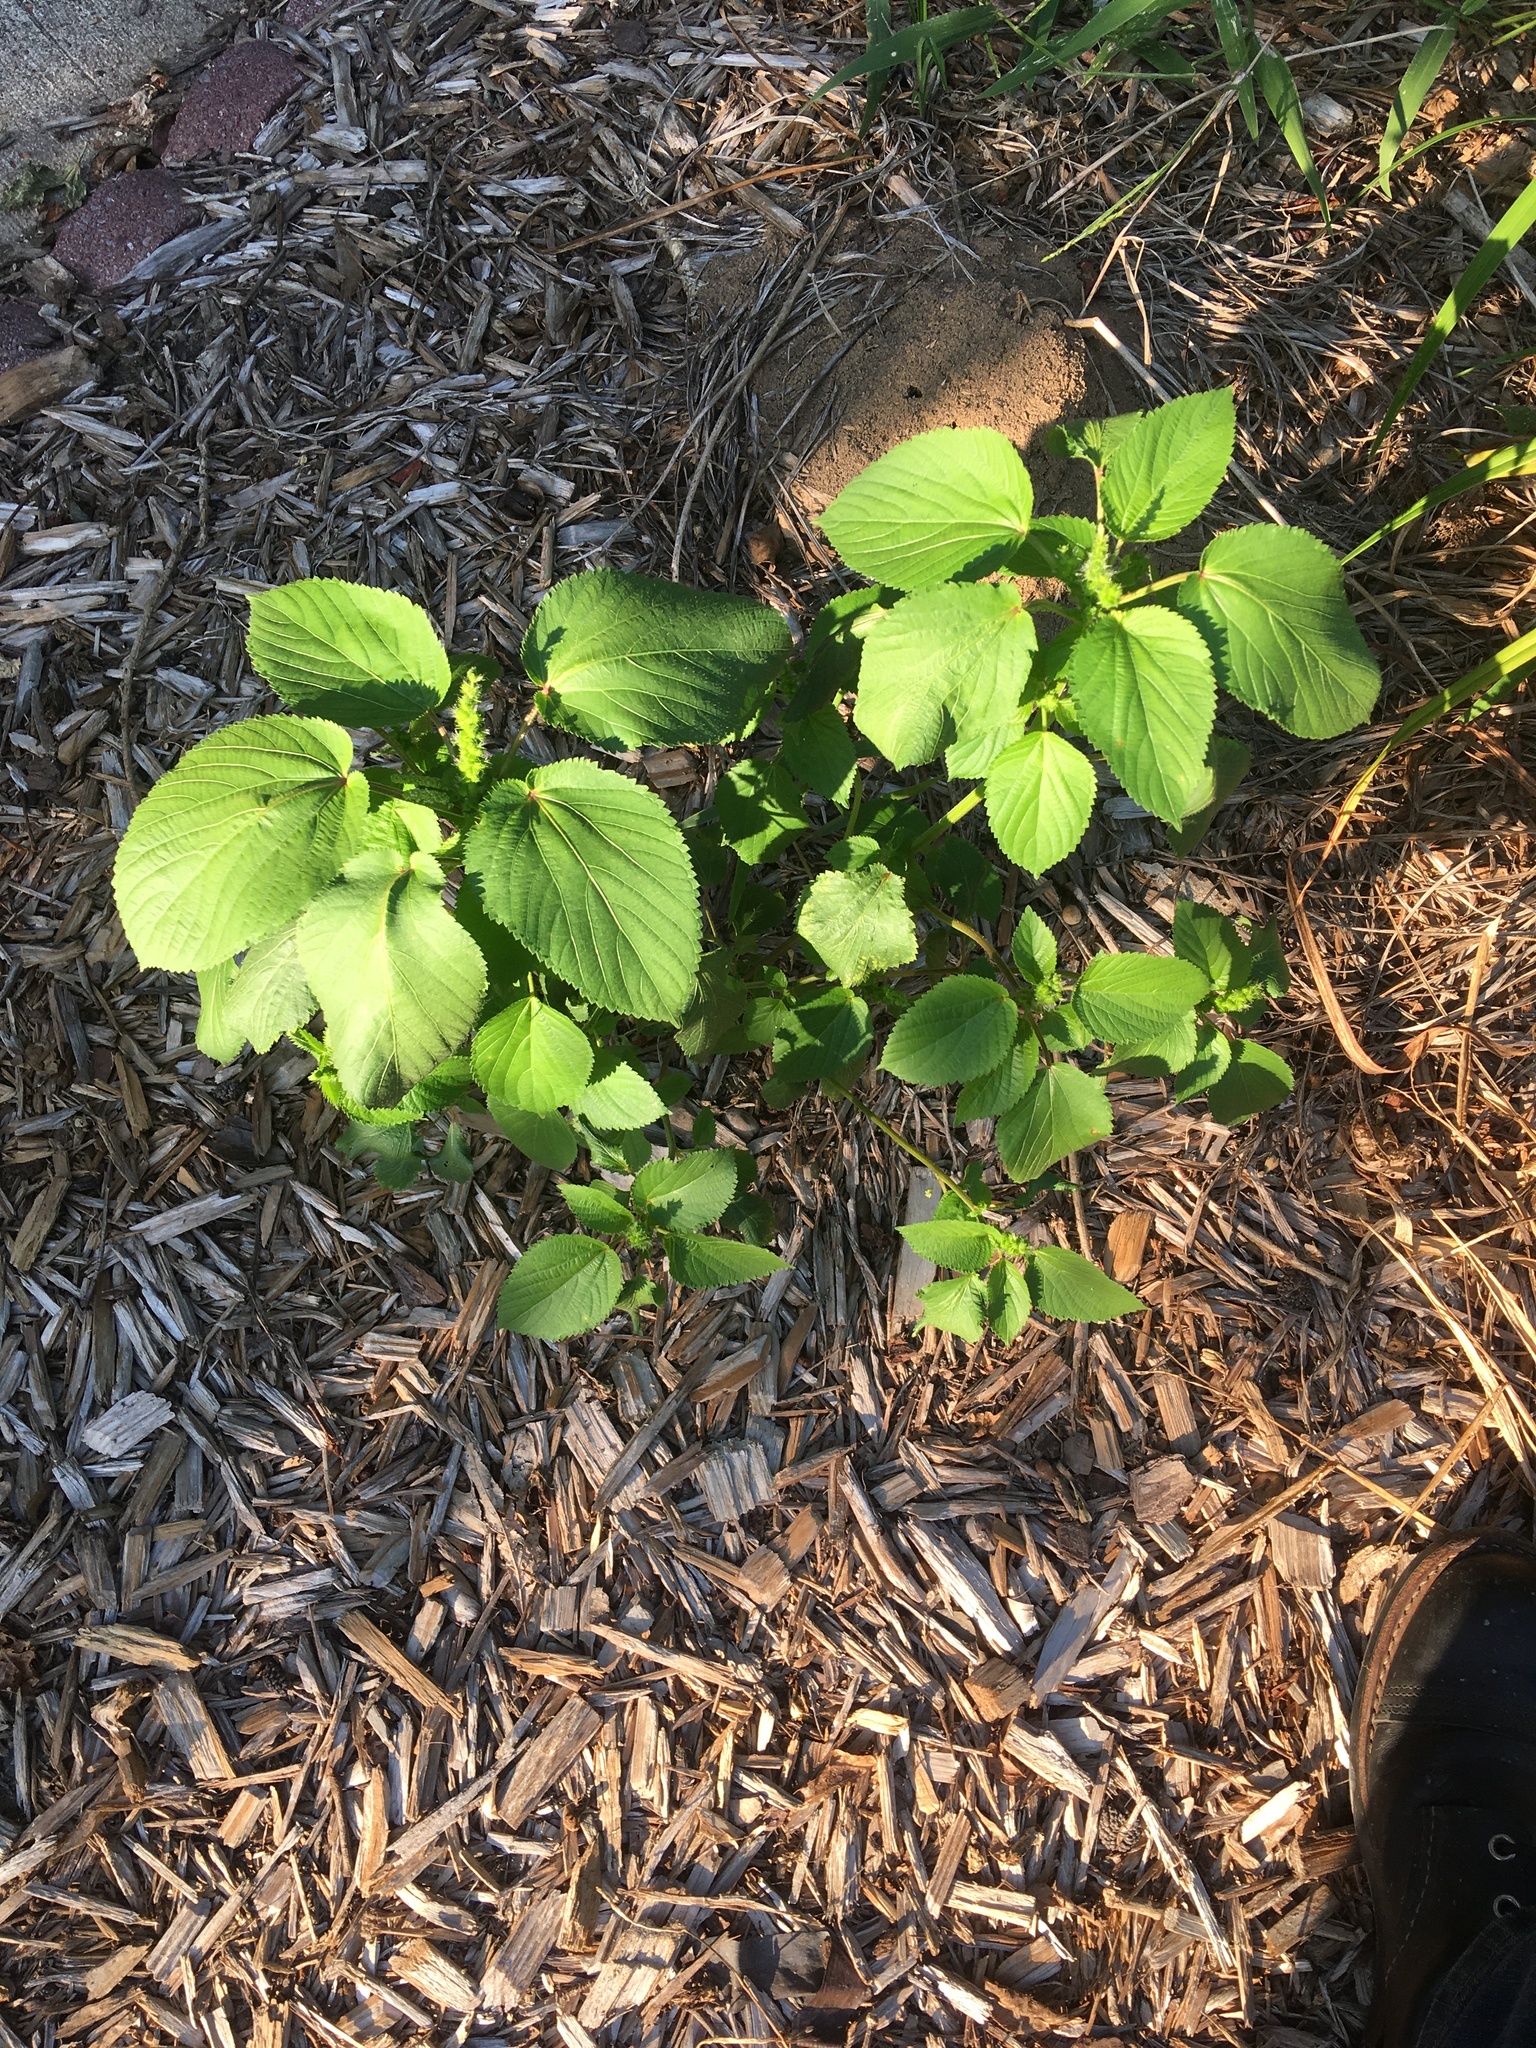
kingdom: Plantae
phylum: Tracheophyta
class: Magnoliopsida
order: Malpighiales
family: Euphorbiaceae
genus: Acalypha
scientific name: Acalypha ostryifolia
